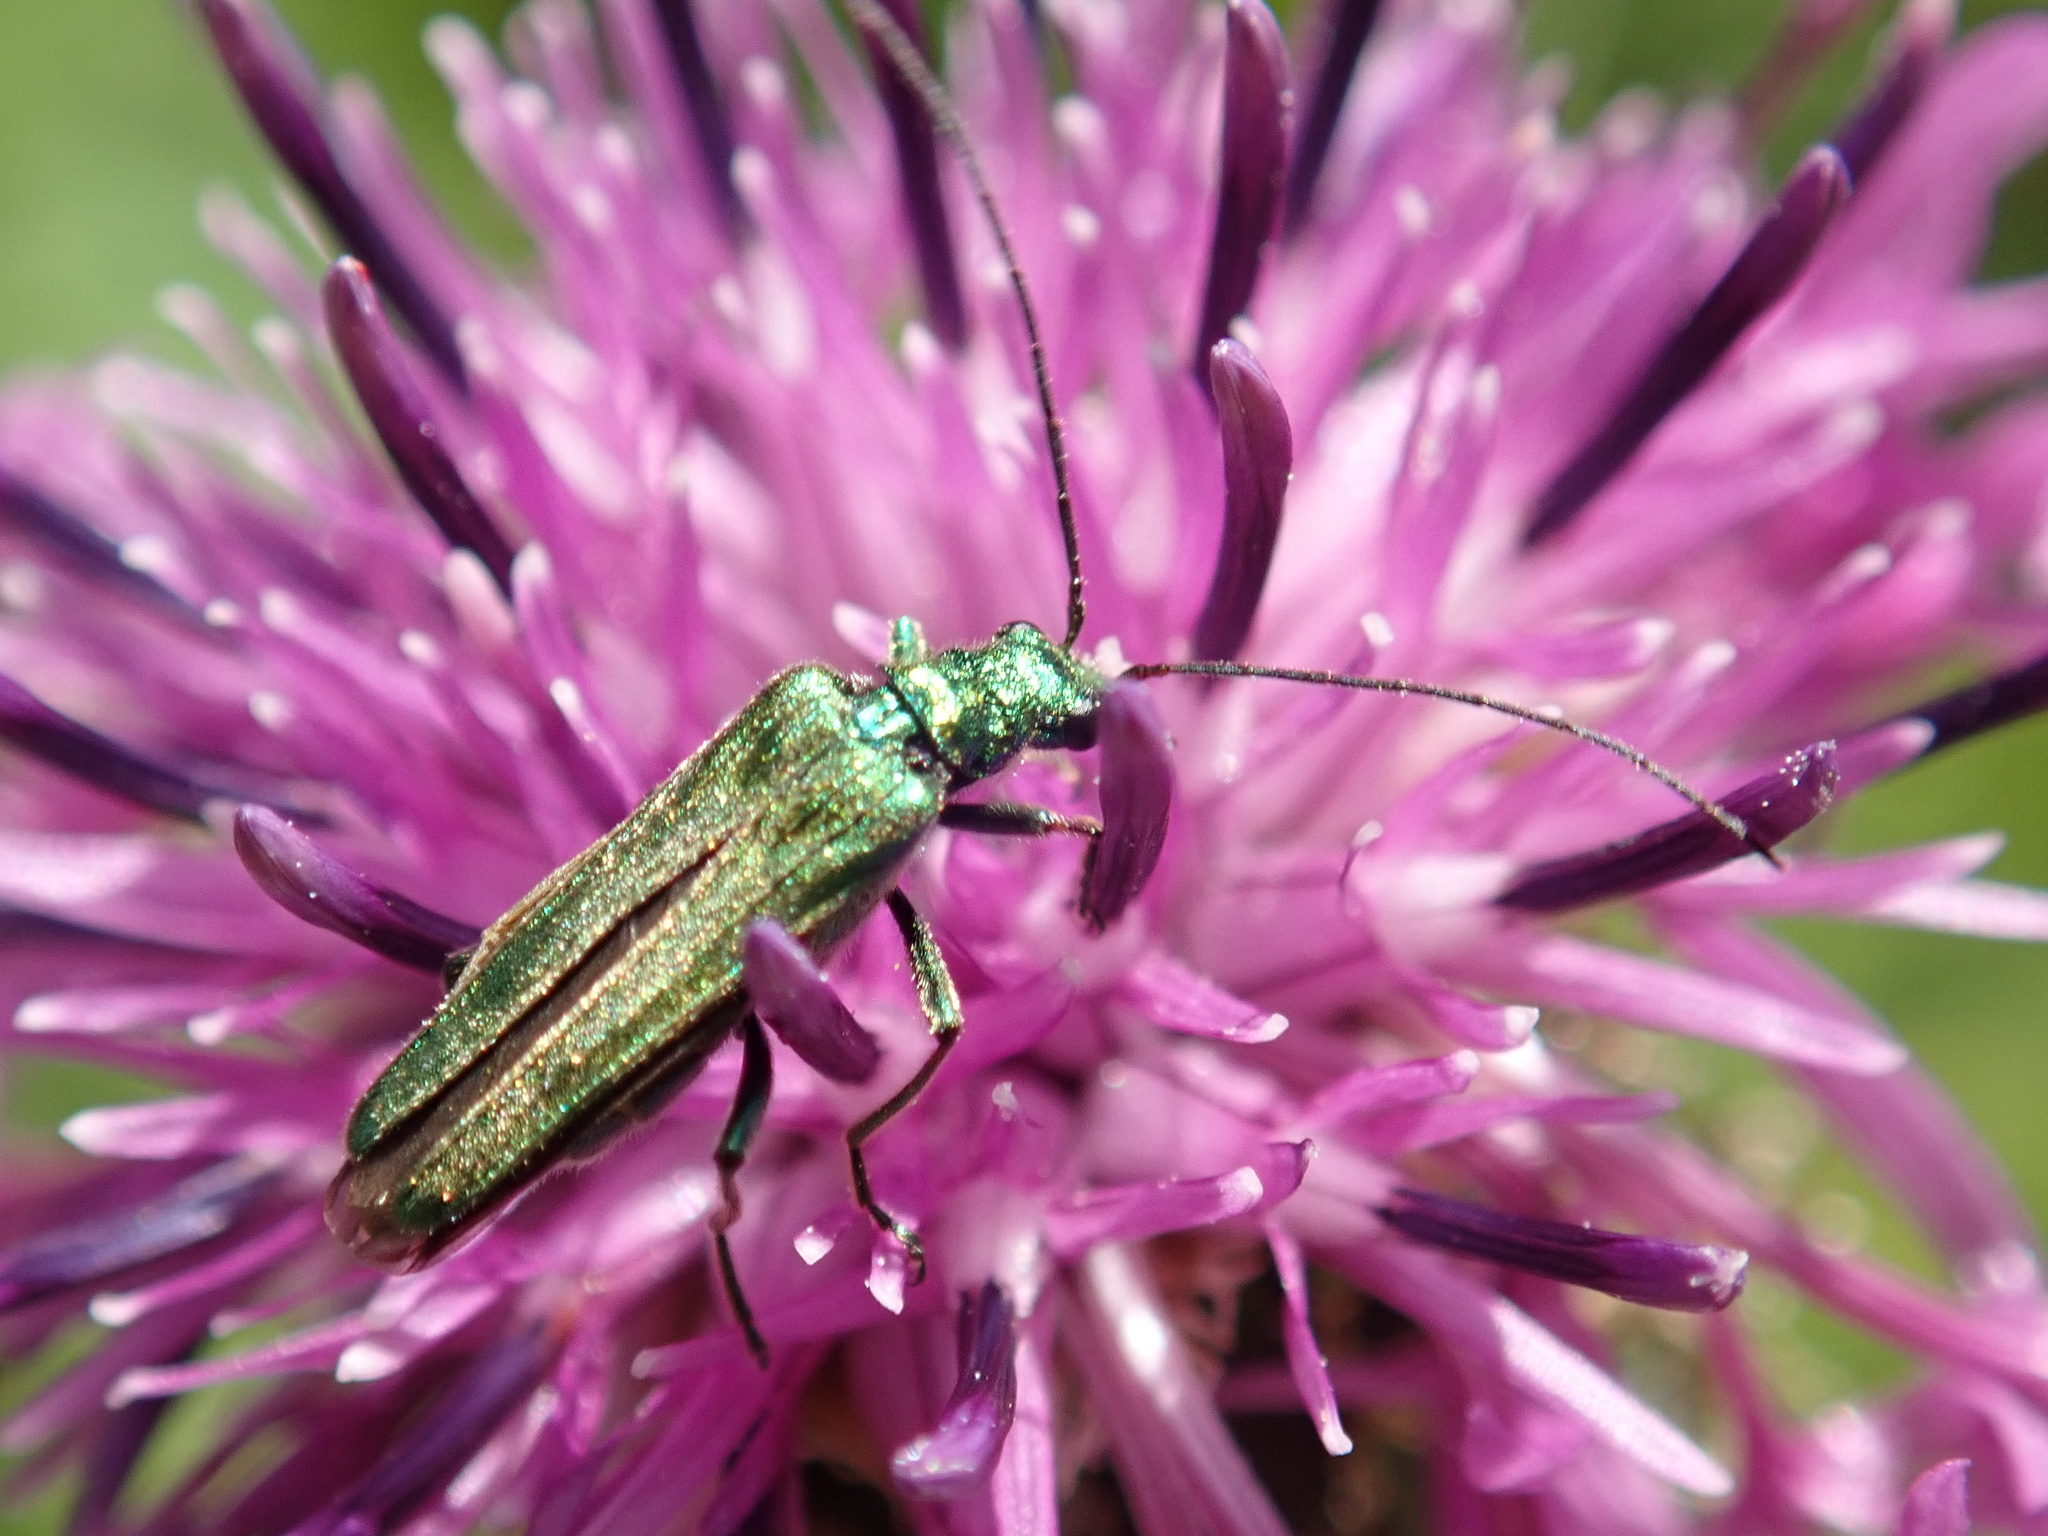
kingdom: Animalia
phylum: Arthropoda
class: Insecta
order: Coleoptera
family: Oedemeridae
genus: Oedemera
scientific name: Oedemera nobilis
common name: Swollen-thighed beetle
